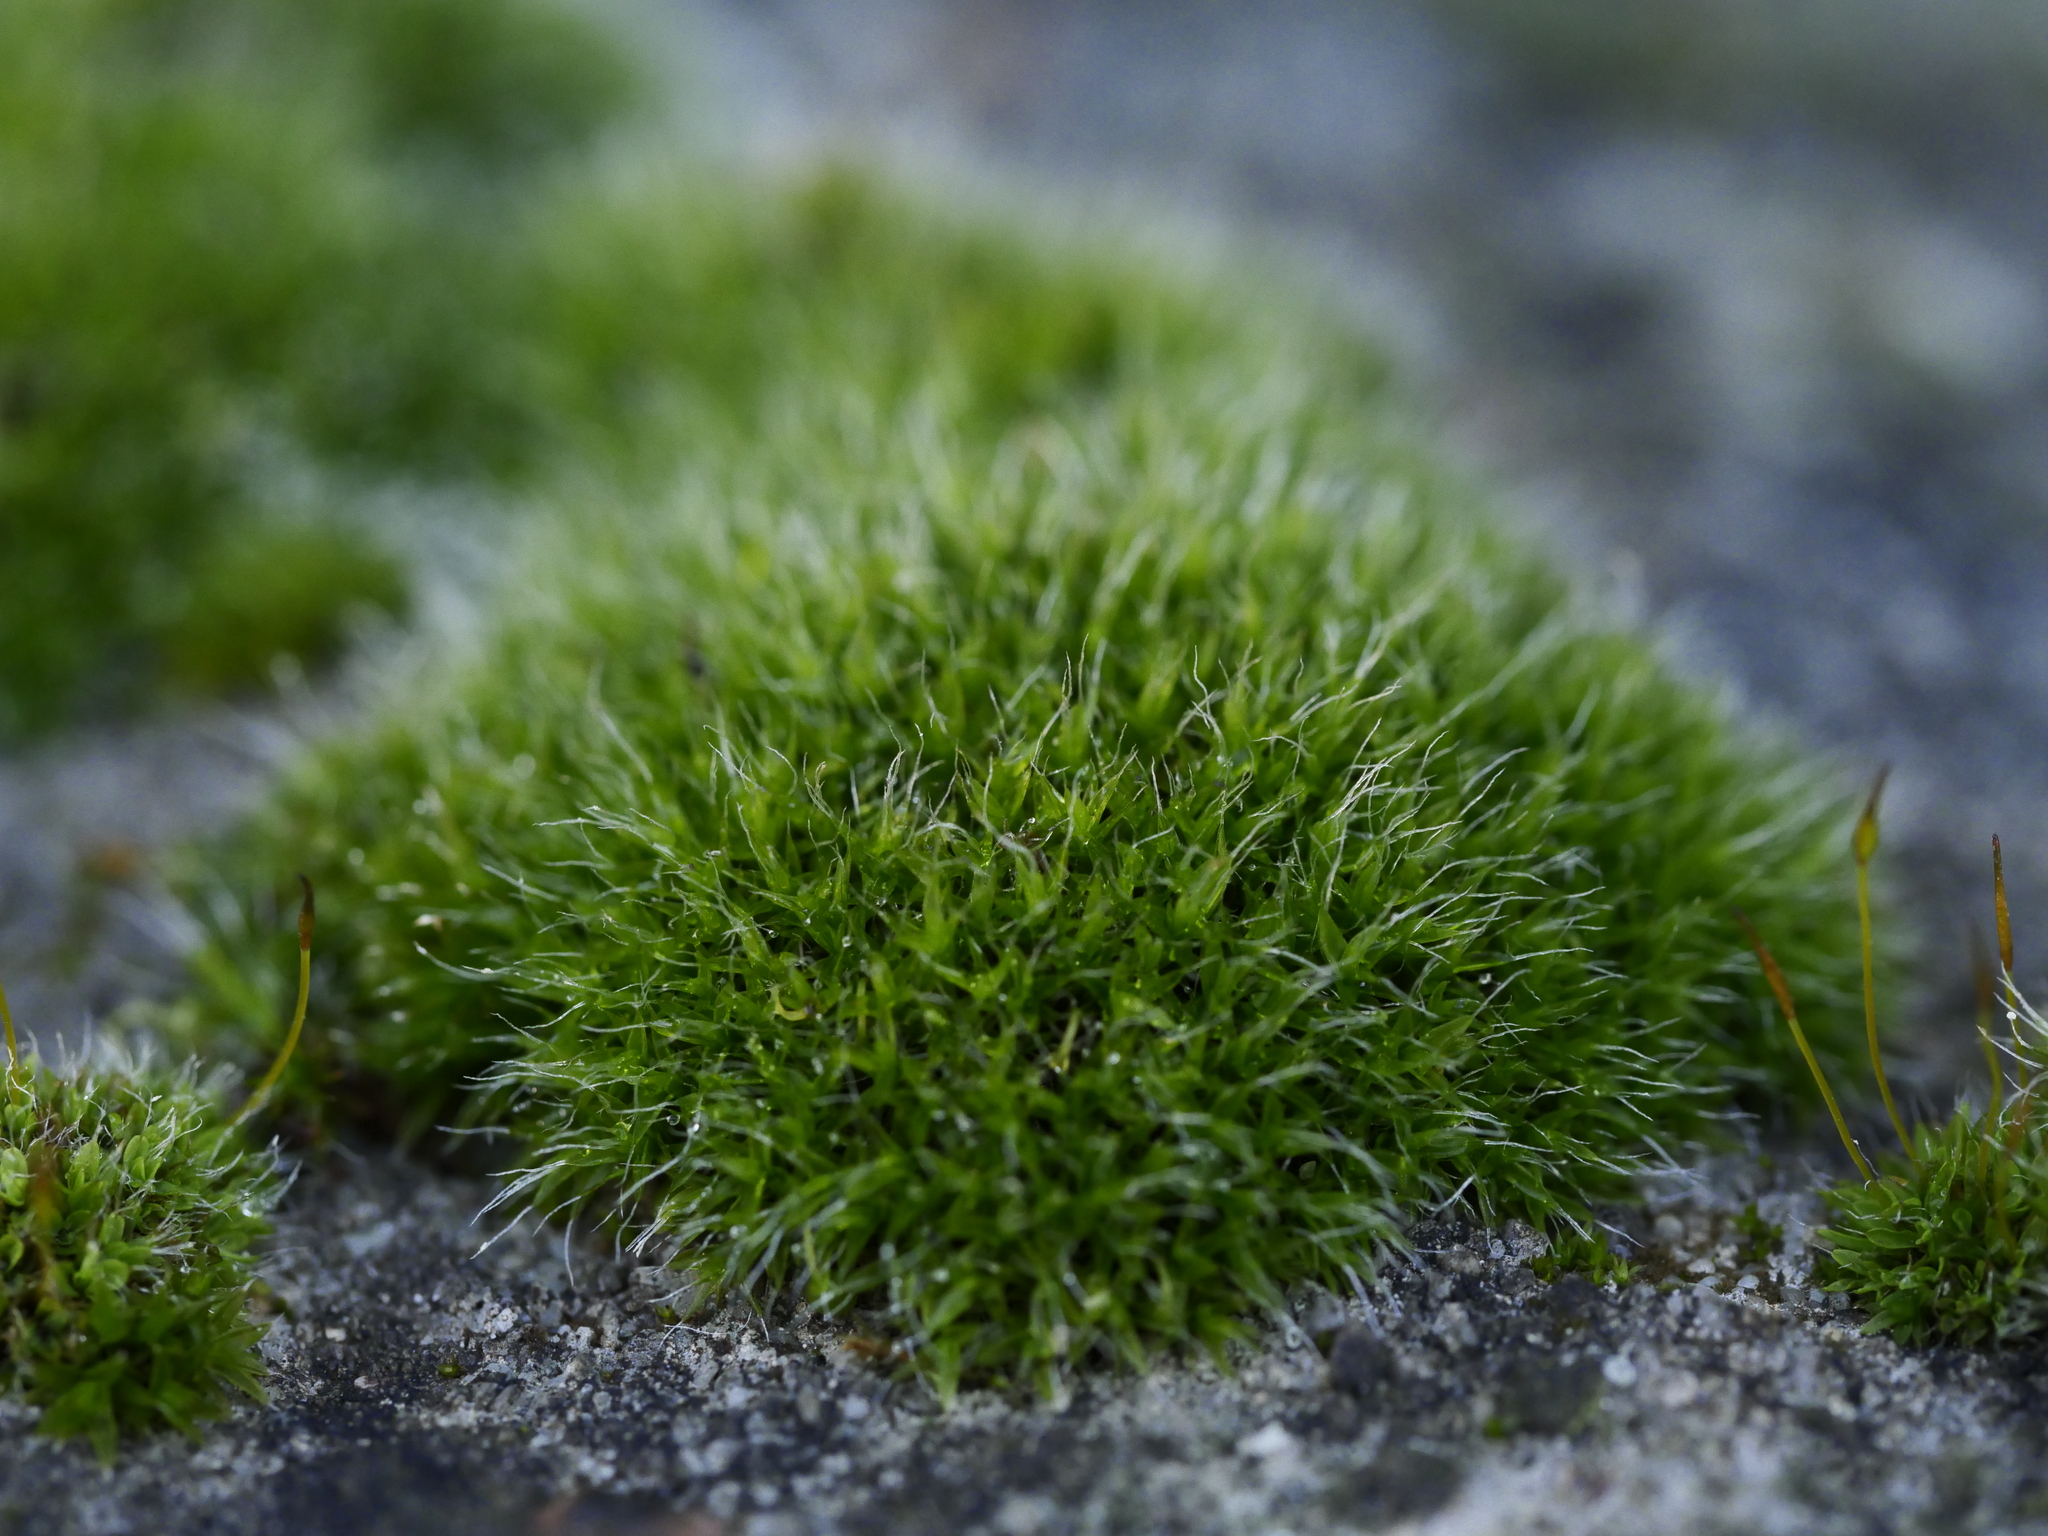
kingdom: Plantae
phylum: Bryophyta
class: Bryopsida
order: Grimmiales
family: Grimmiaceae
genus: Grimmia
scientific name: Grimmia pulvinata
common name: Grey-cushioned grimmia
